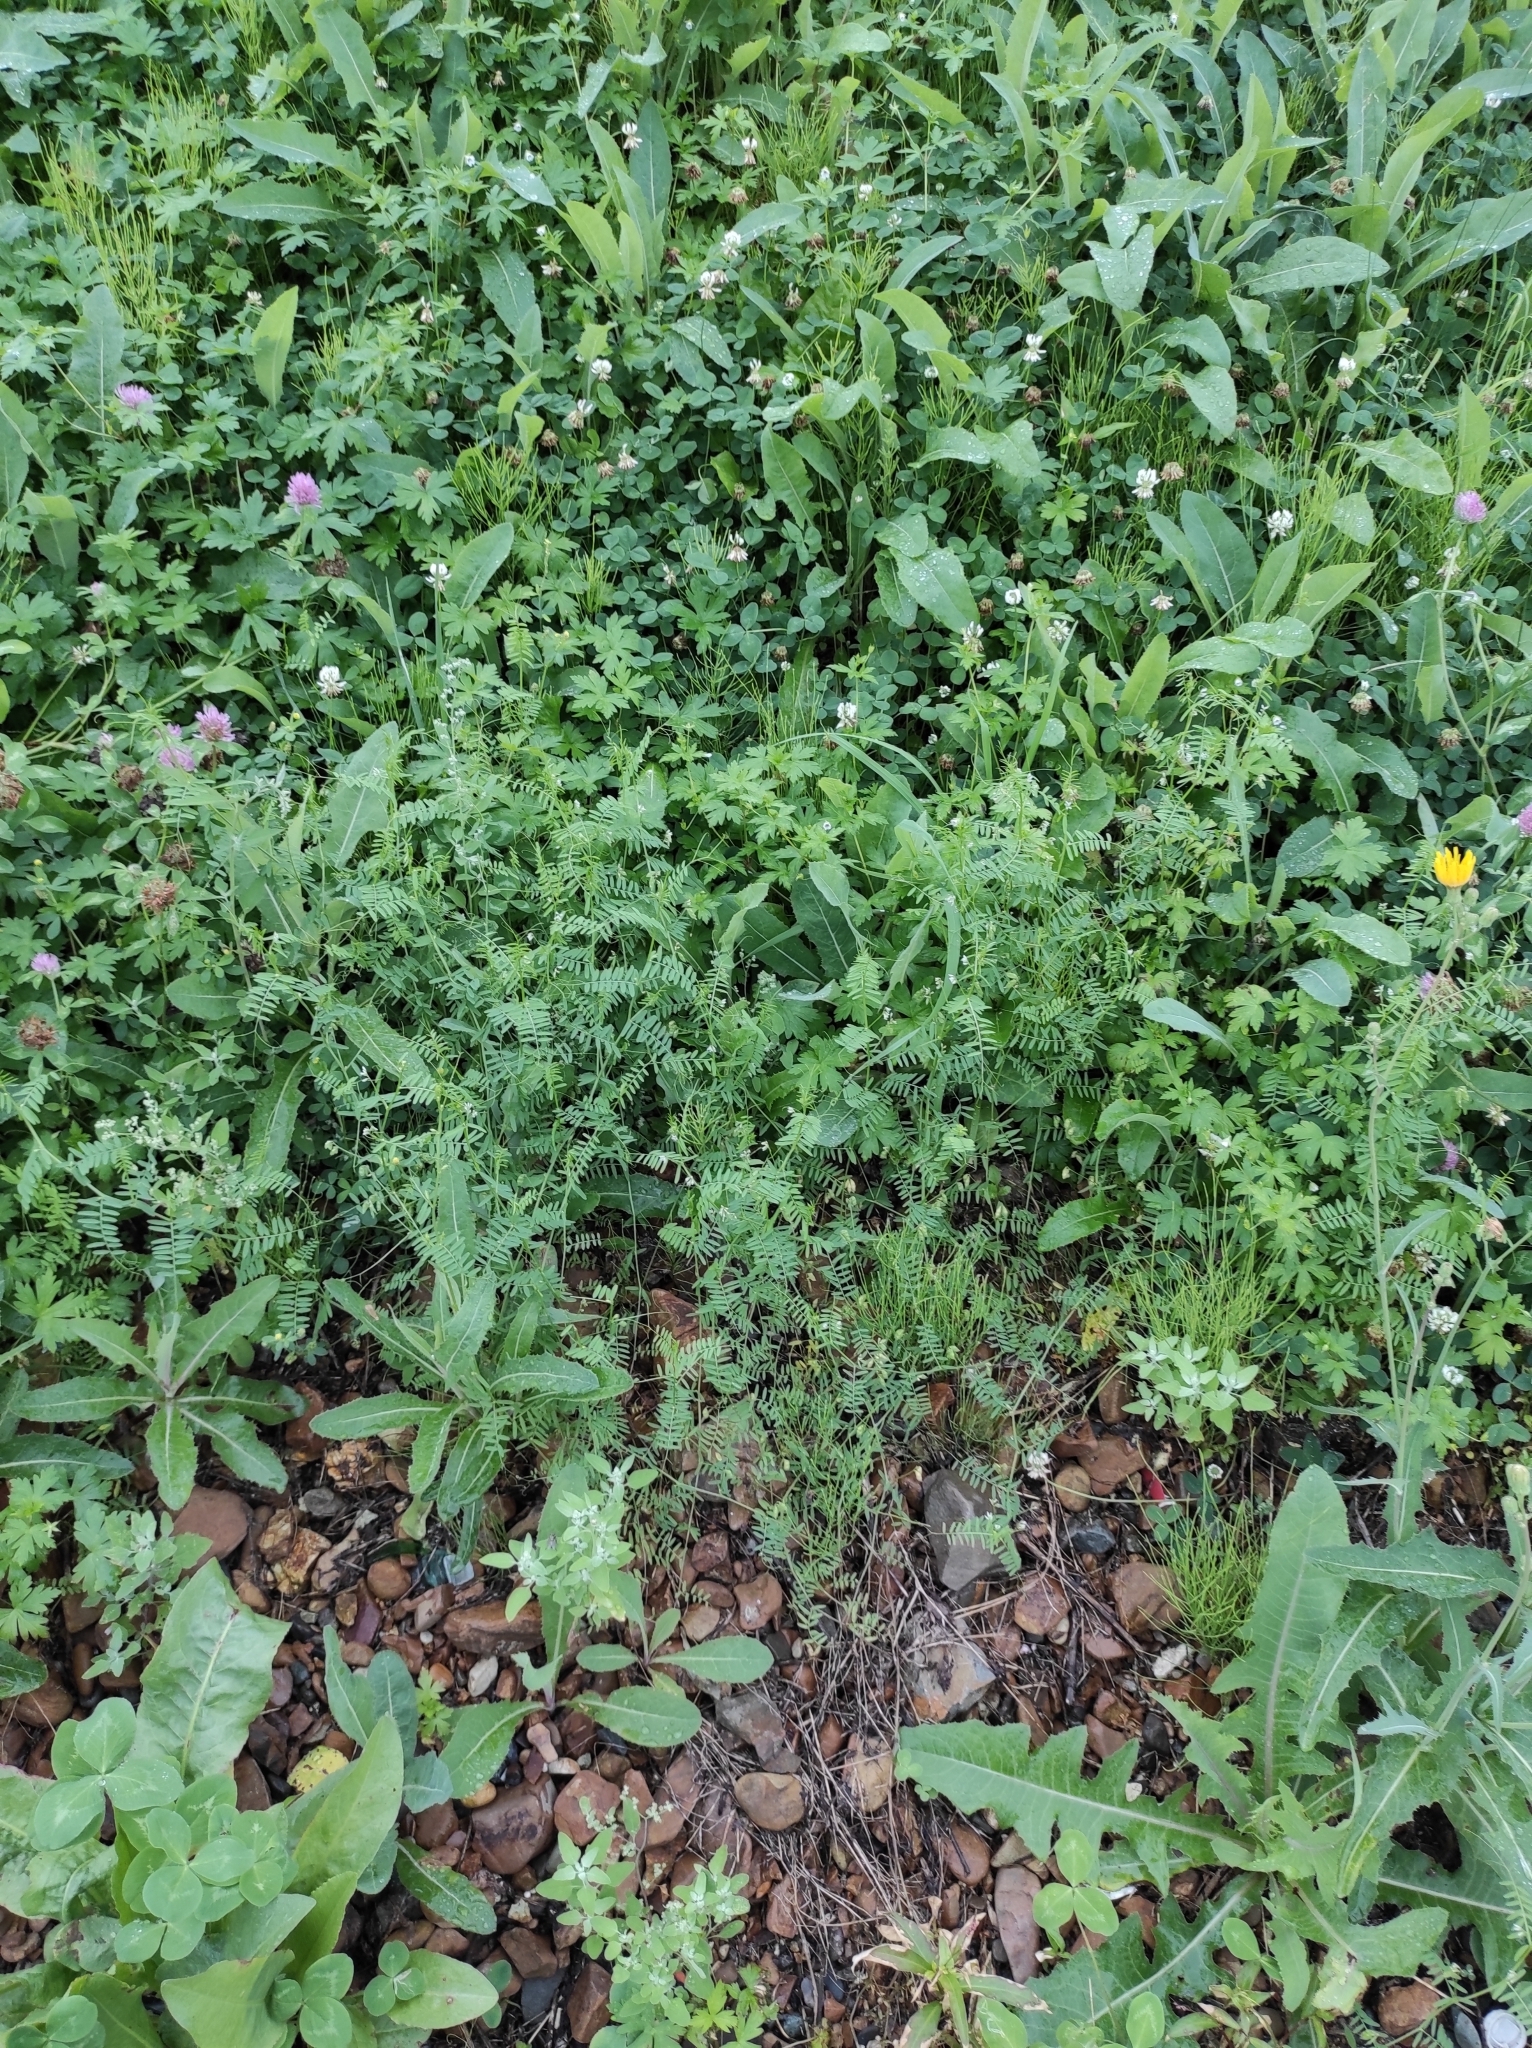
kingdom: Plantae
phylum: Tracheophyta
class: Magnoliopsida
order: Fabales
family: Fabaceae
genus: Vicia
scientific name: Vicia hirsuta
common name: Tiny vetch
